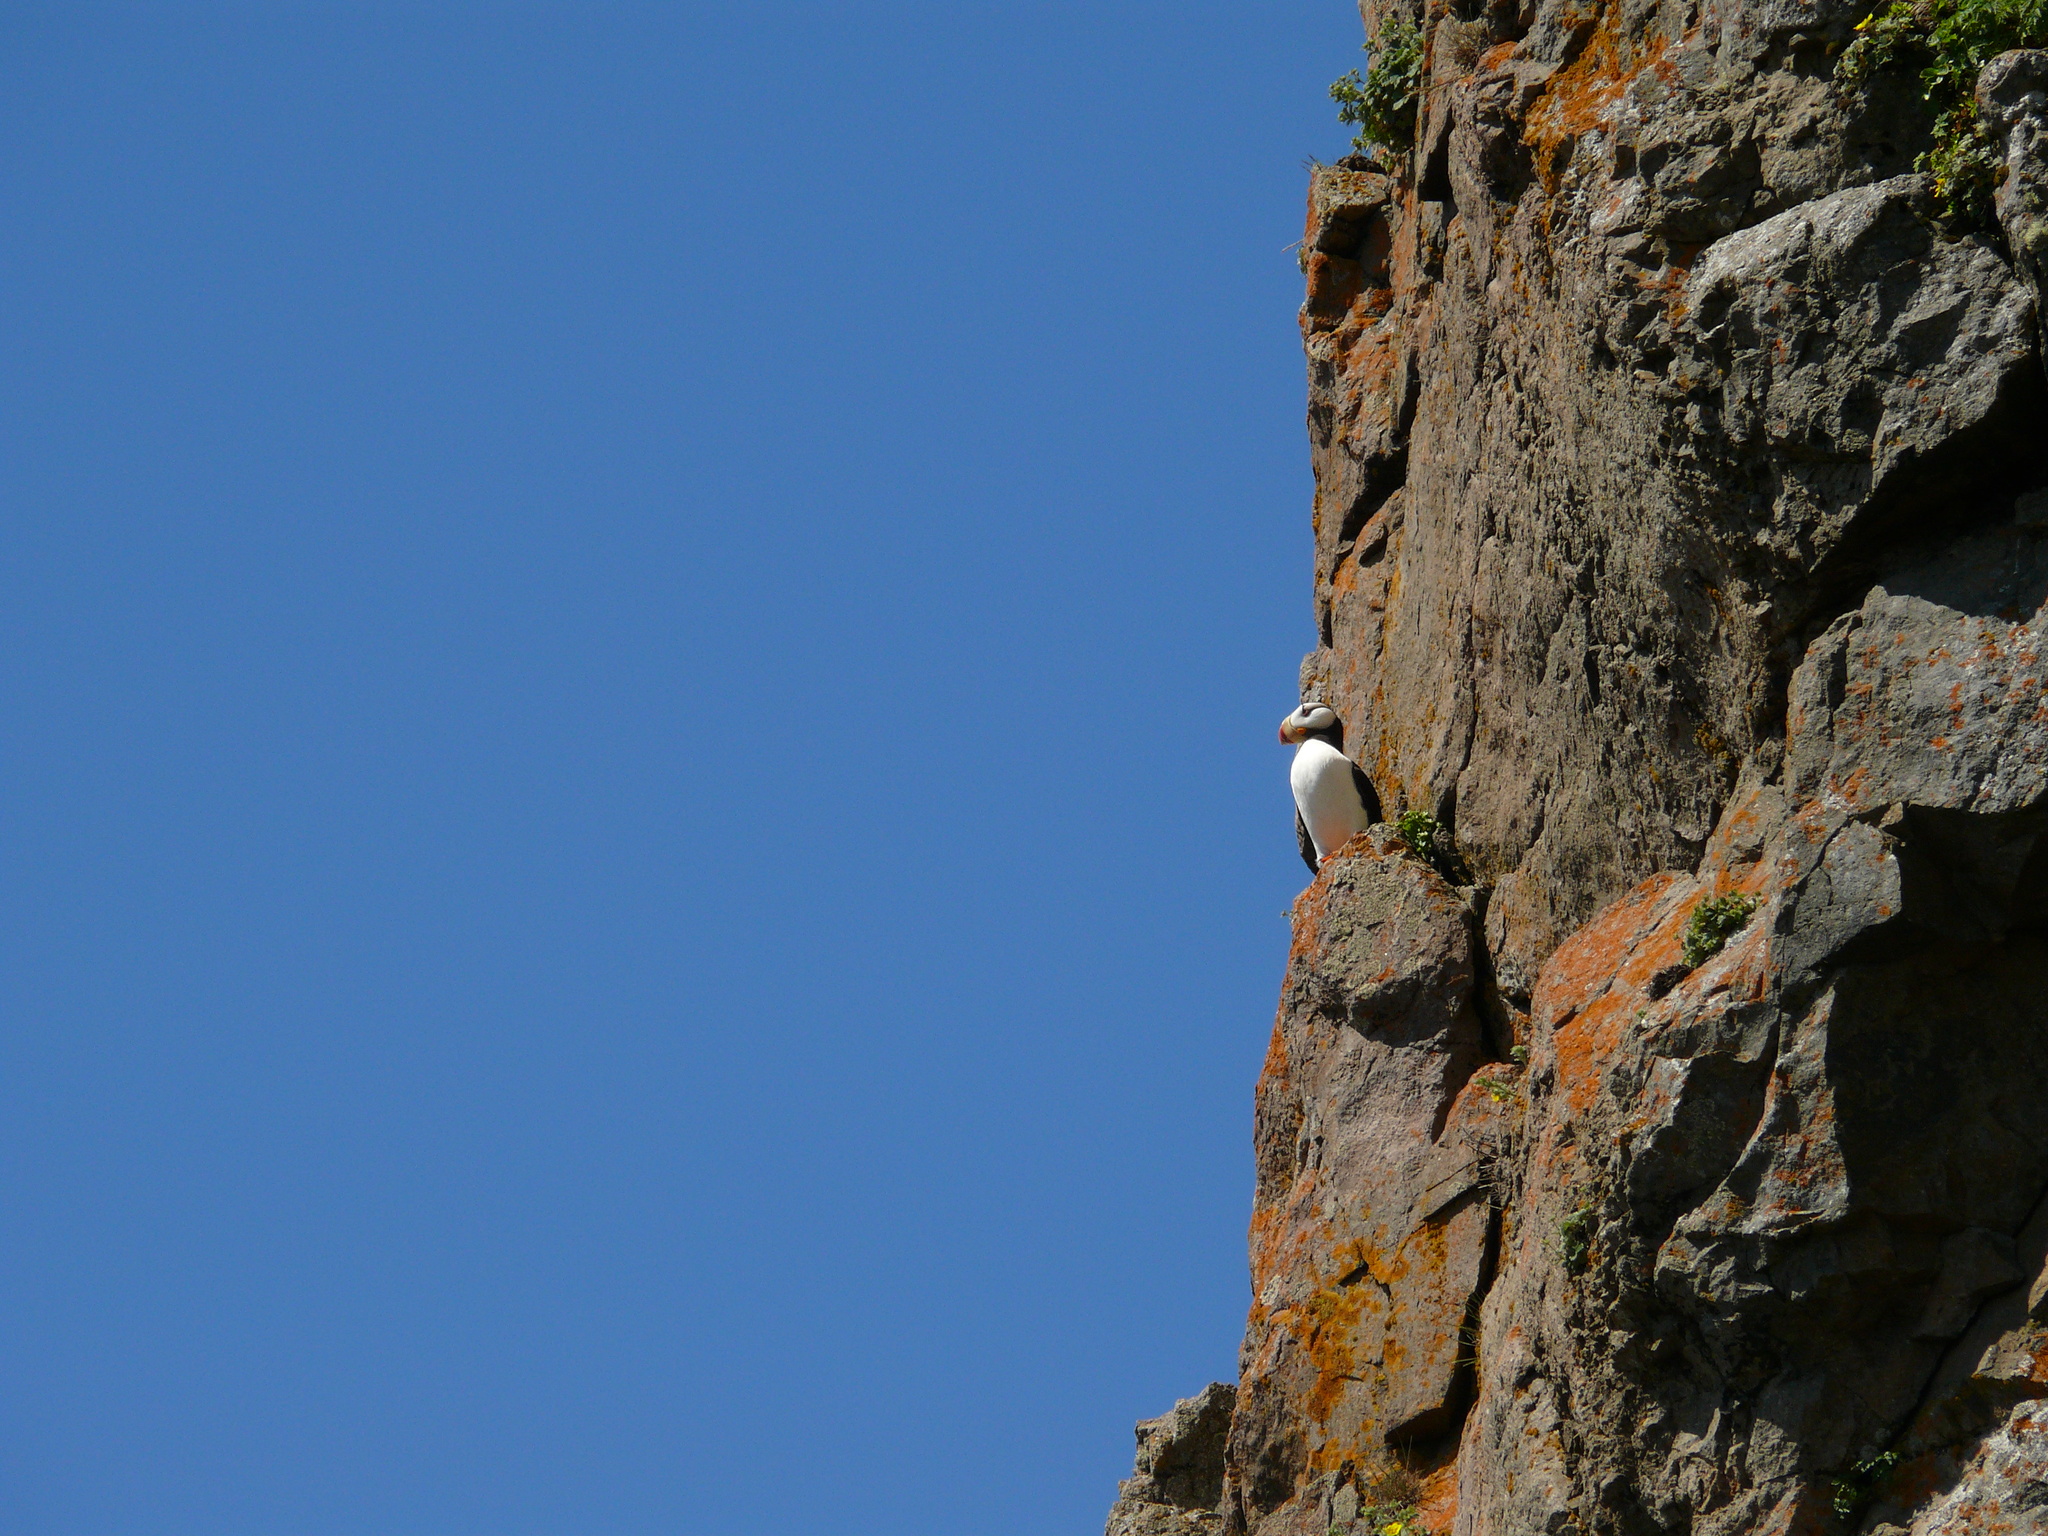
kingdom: Animalia
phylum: Chordata
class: Aves
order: Charadriiformes
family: Alcidae
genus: Fratercula
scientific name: Fratercula corniculata
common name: Horned puffin
